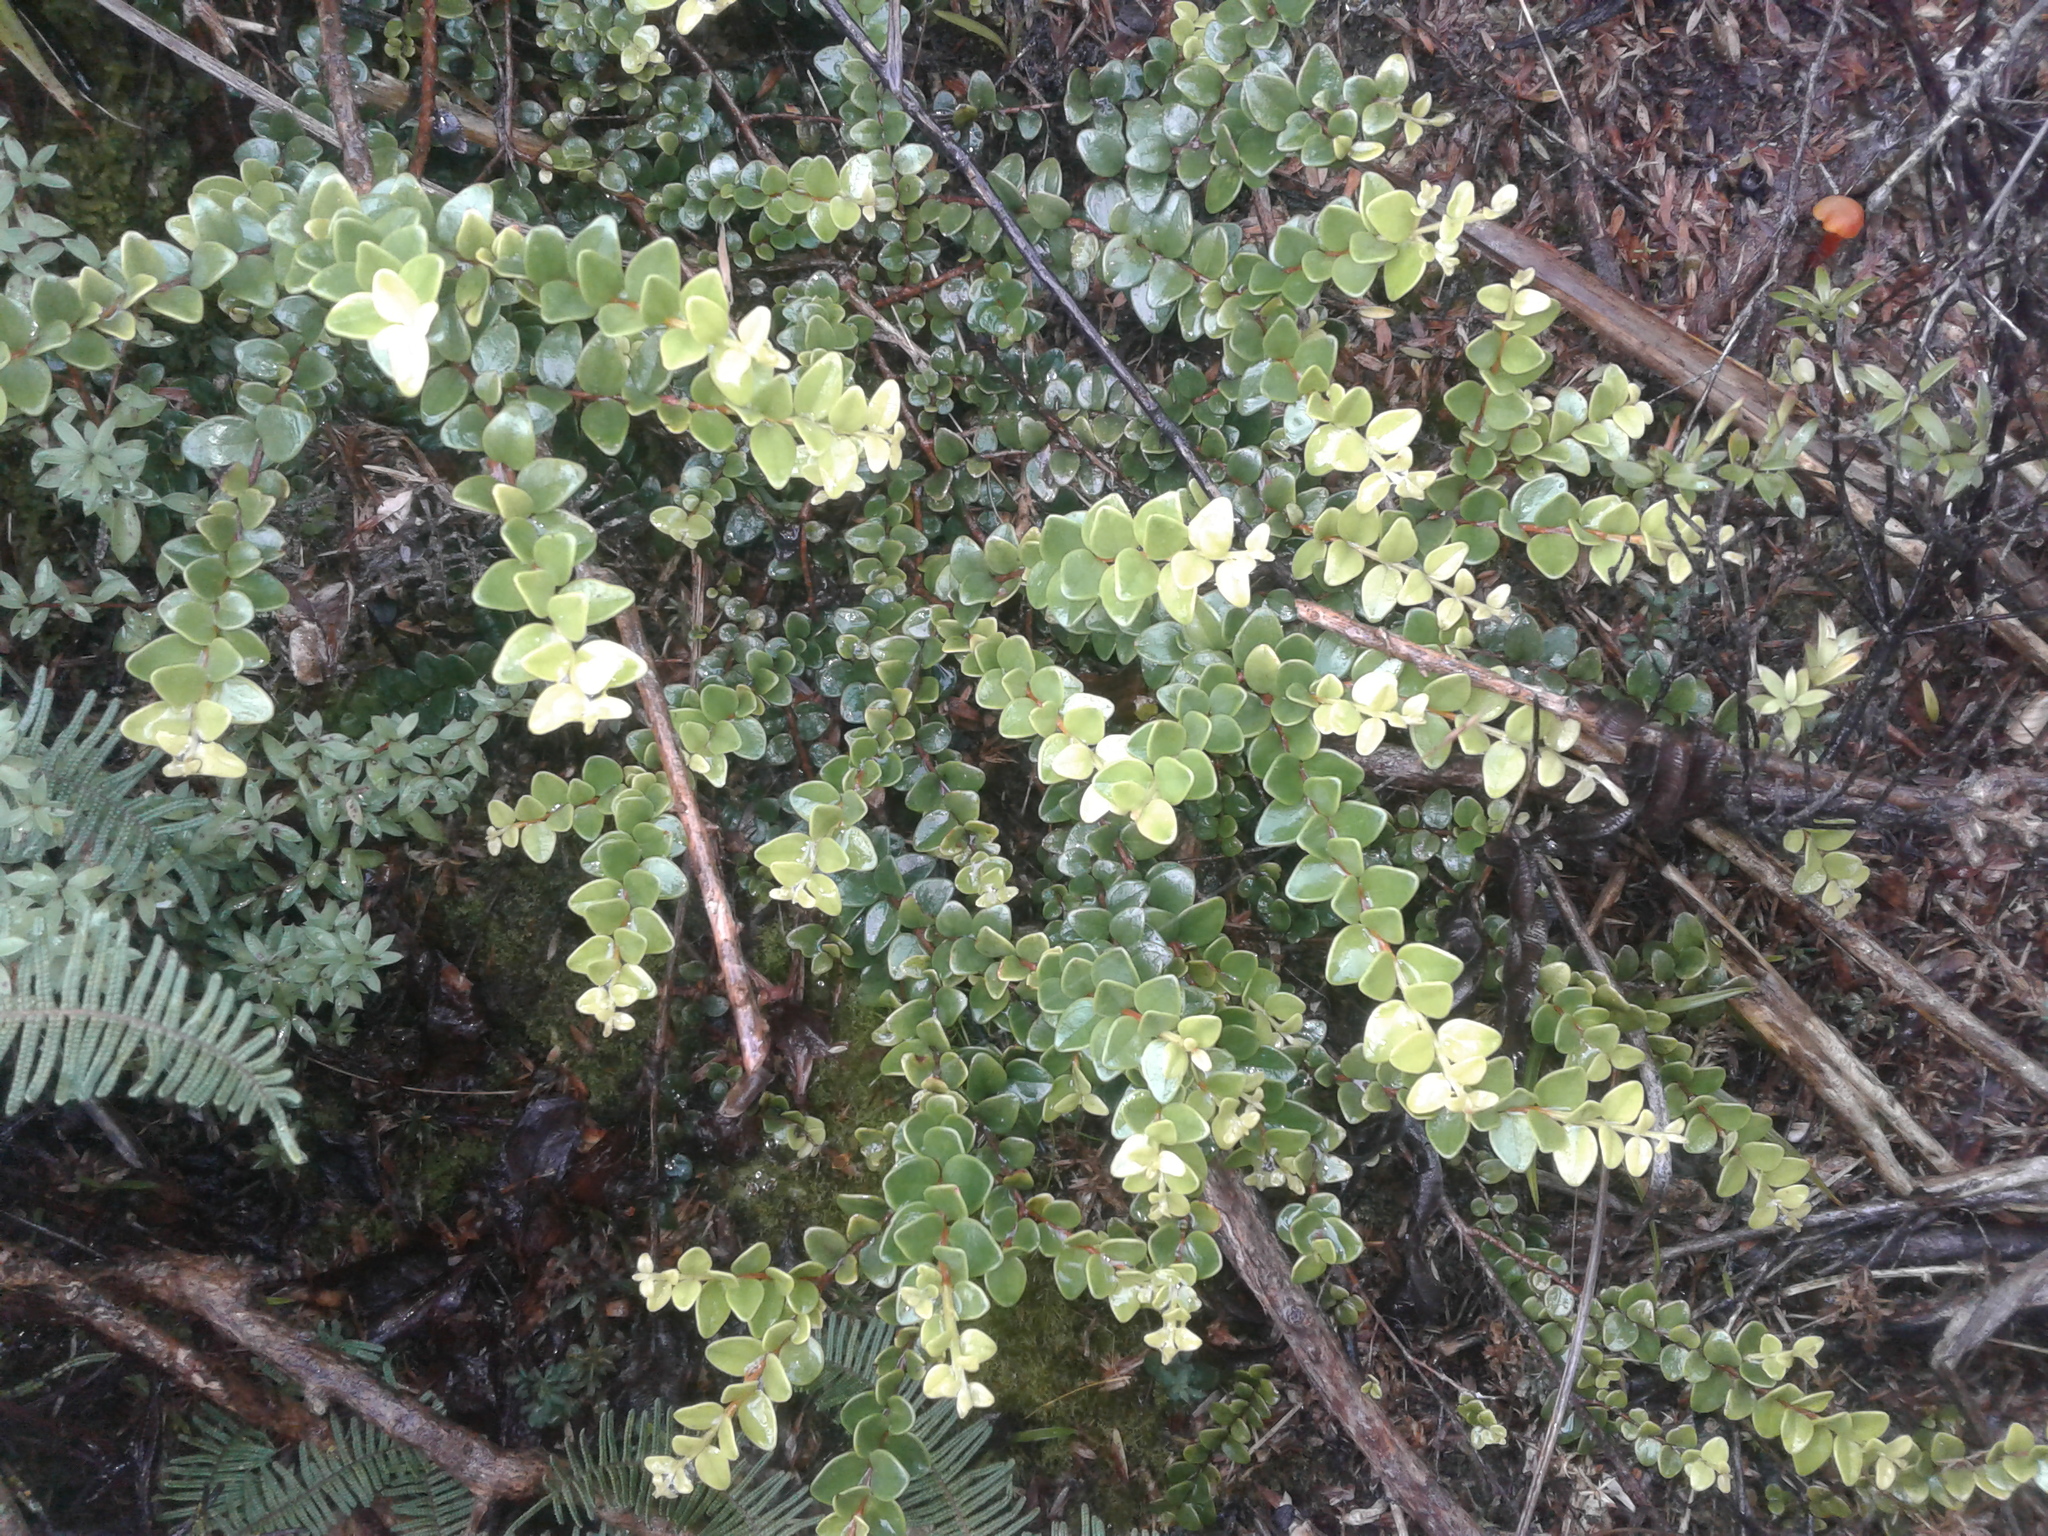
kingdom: Plantae
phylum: Tracheophyta
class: Magnoliopsida
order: Myrtales
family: Myrtaceae
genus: Metrosideros
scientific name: Metrosideros perforata
